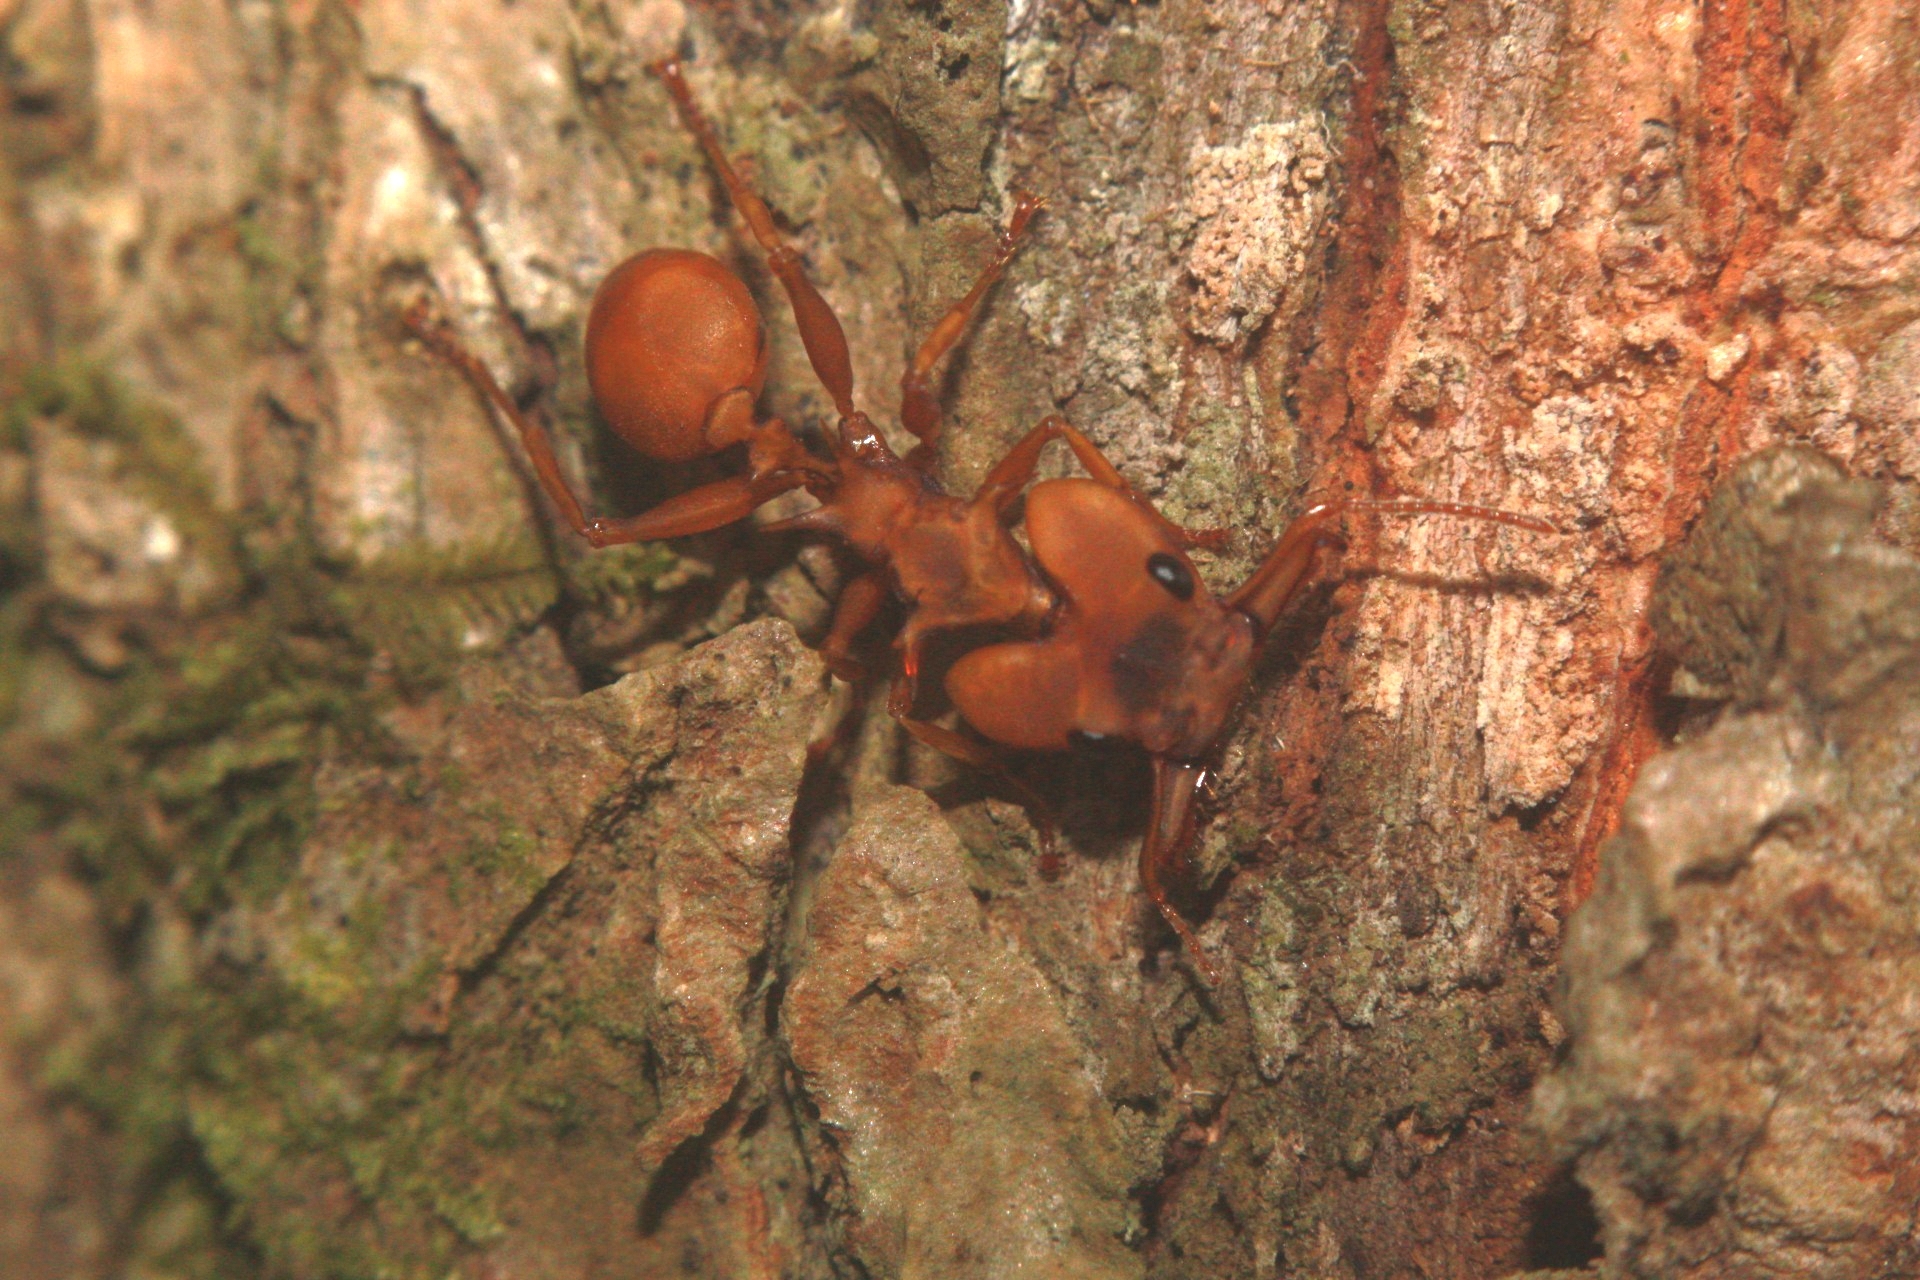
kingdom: Animalia
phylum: Arthropoda
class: Insecta
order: Hymenoptera
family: Formicidae
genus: Daceton
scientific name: Daceton armigerum
